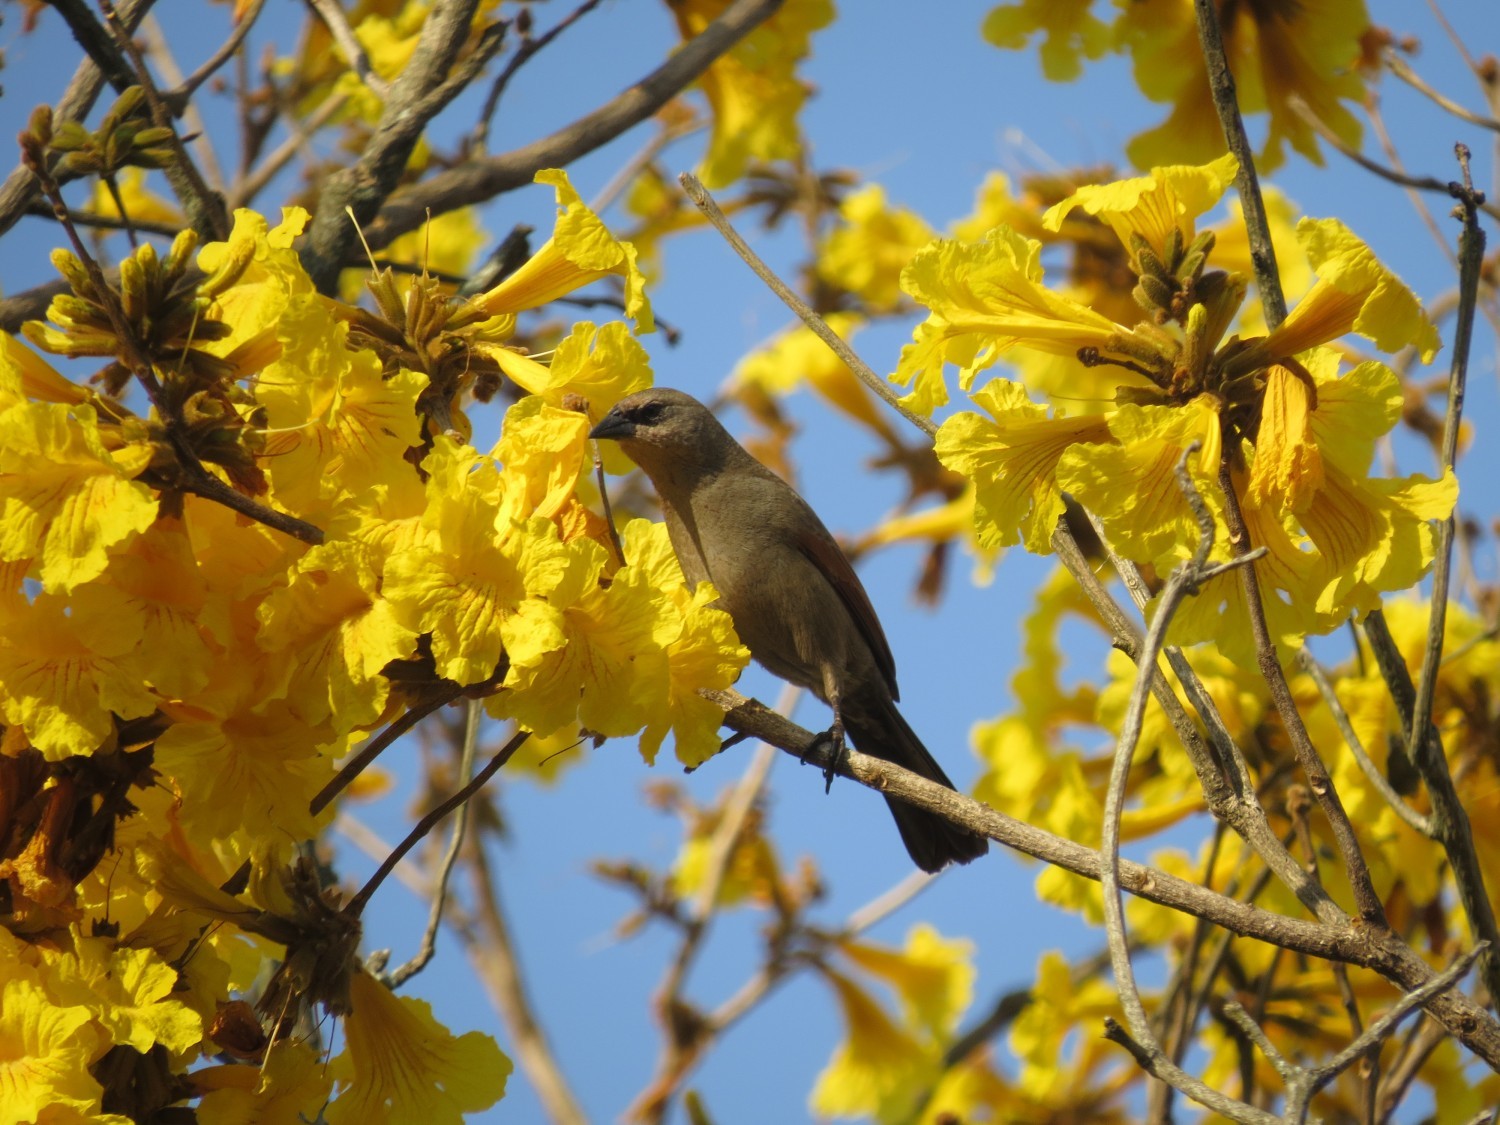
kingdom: Animalia
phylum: Chordata
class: Aves
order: Passeriformes
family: Icteridae
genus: Agelaioides
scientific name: Agelaioides badius
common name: Baywing
